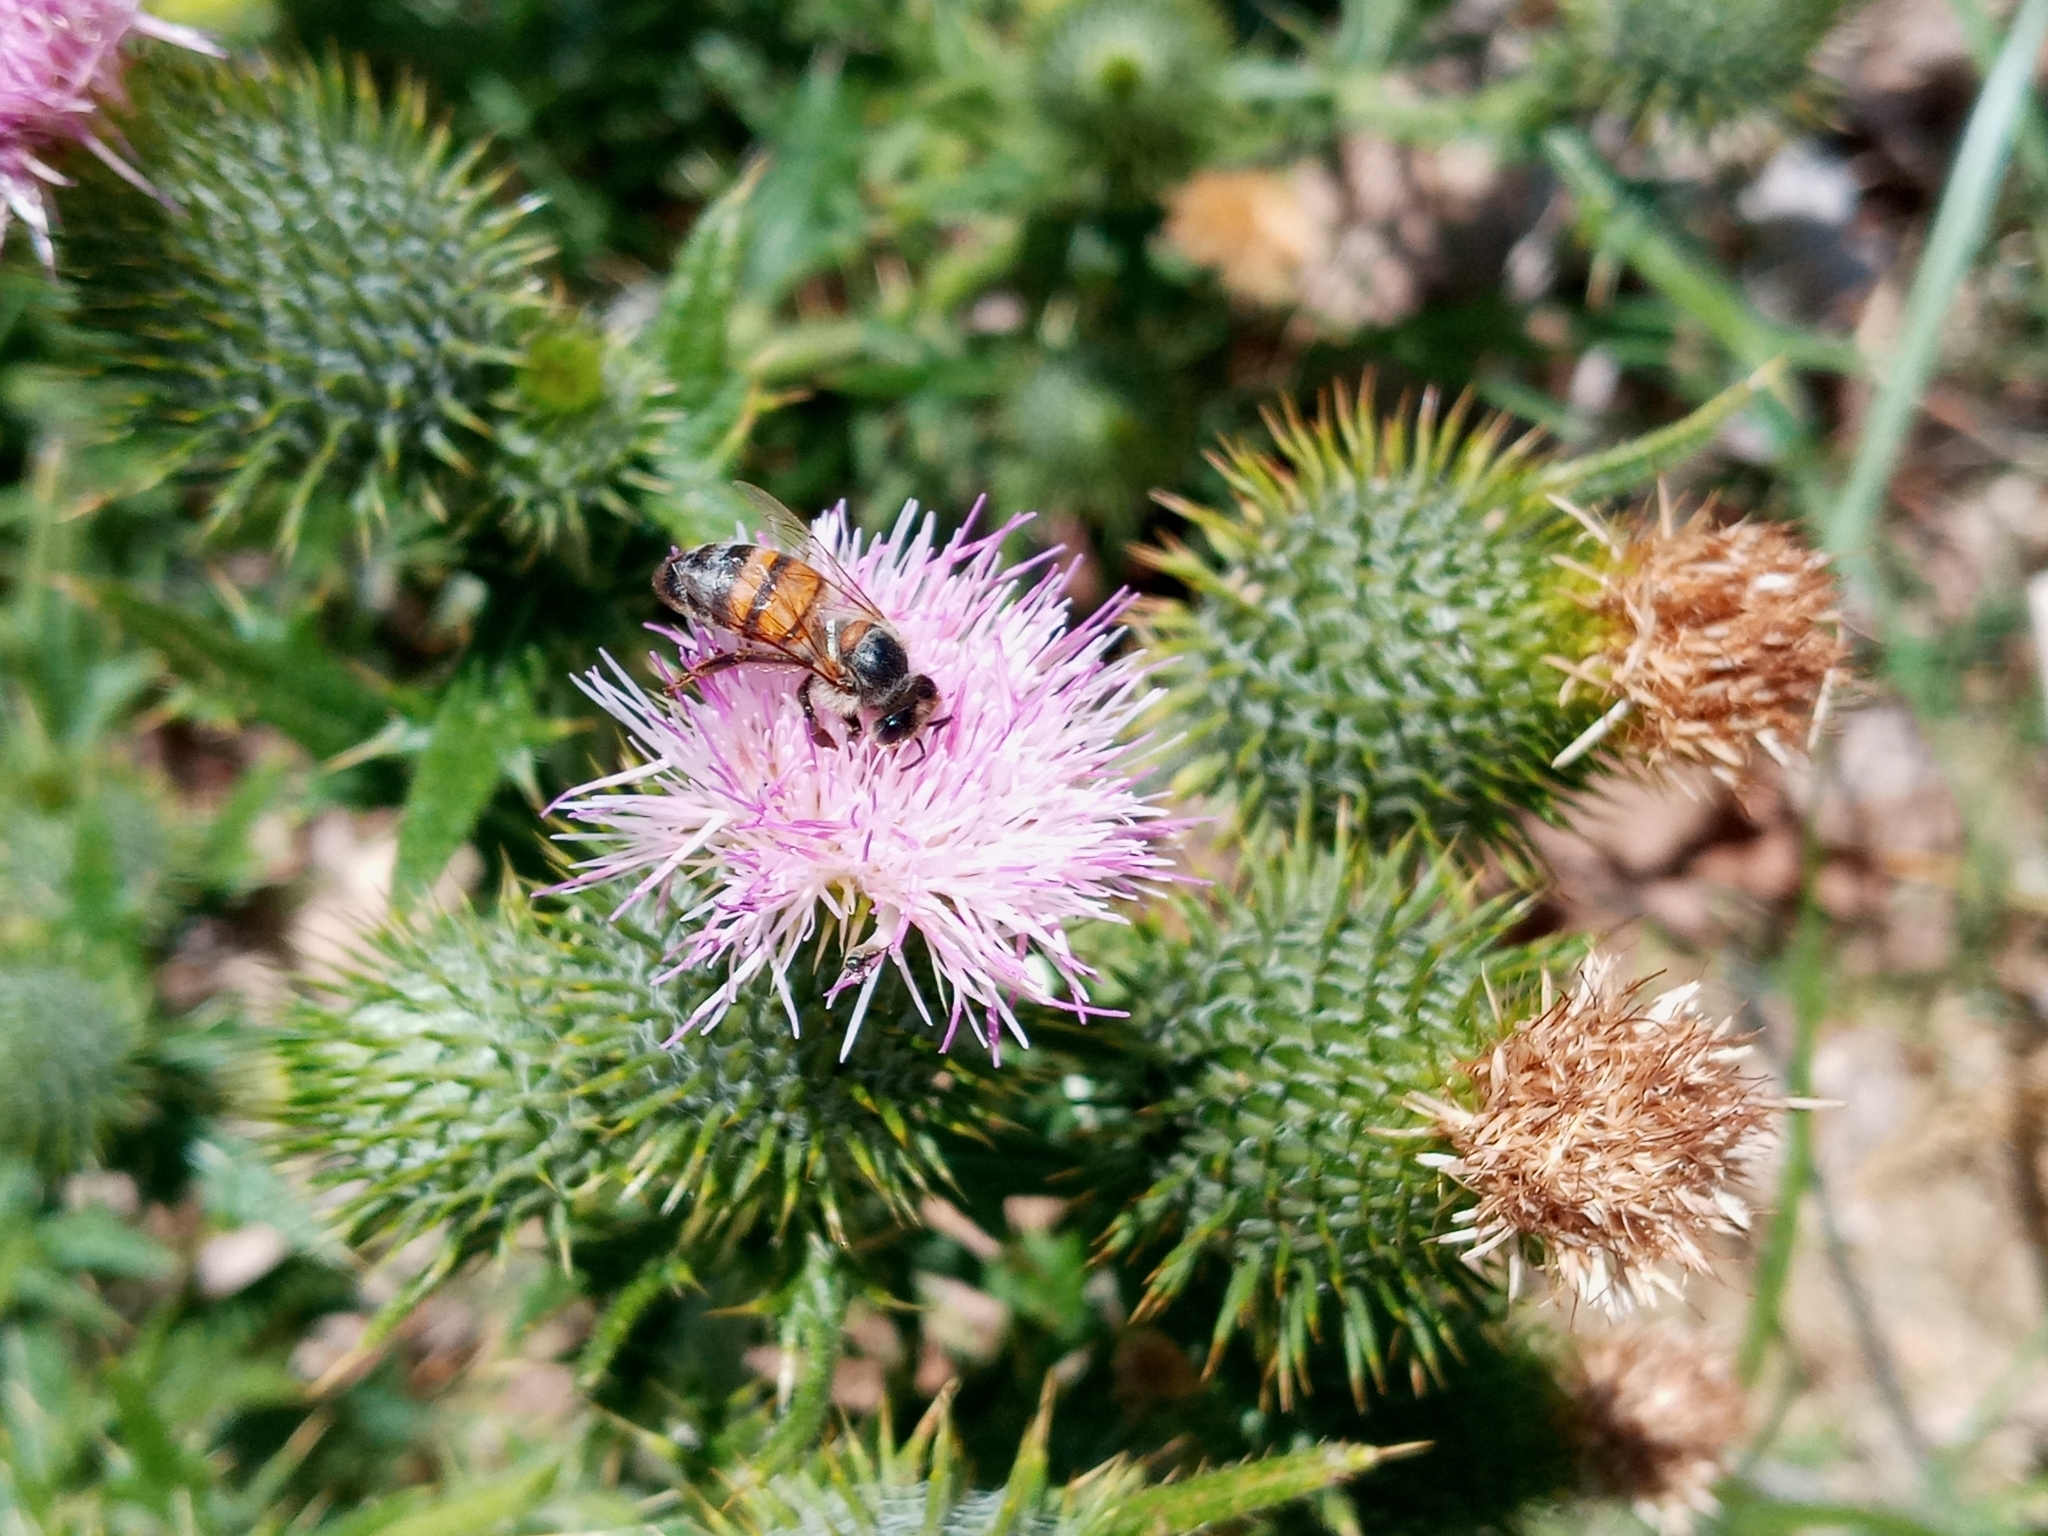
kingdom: Plantae
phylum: Tracheophyta
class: Magnoliopsida
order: Asterales
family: Asteraceae
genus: Cirsium
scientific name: Cirsium vulgare
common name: Bull thistle
